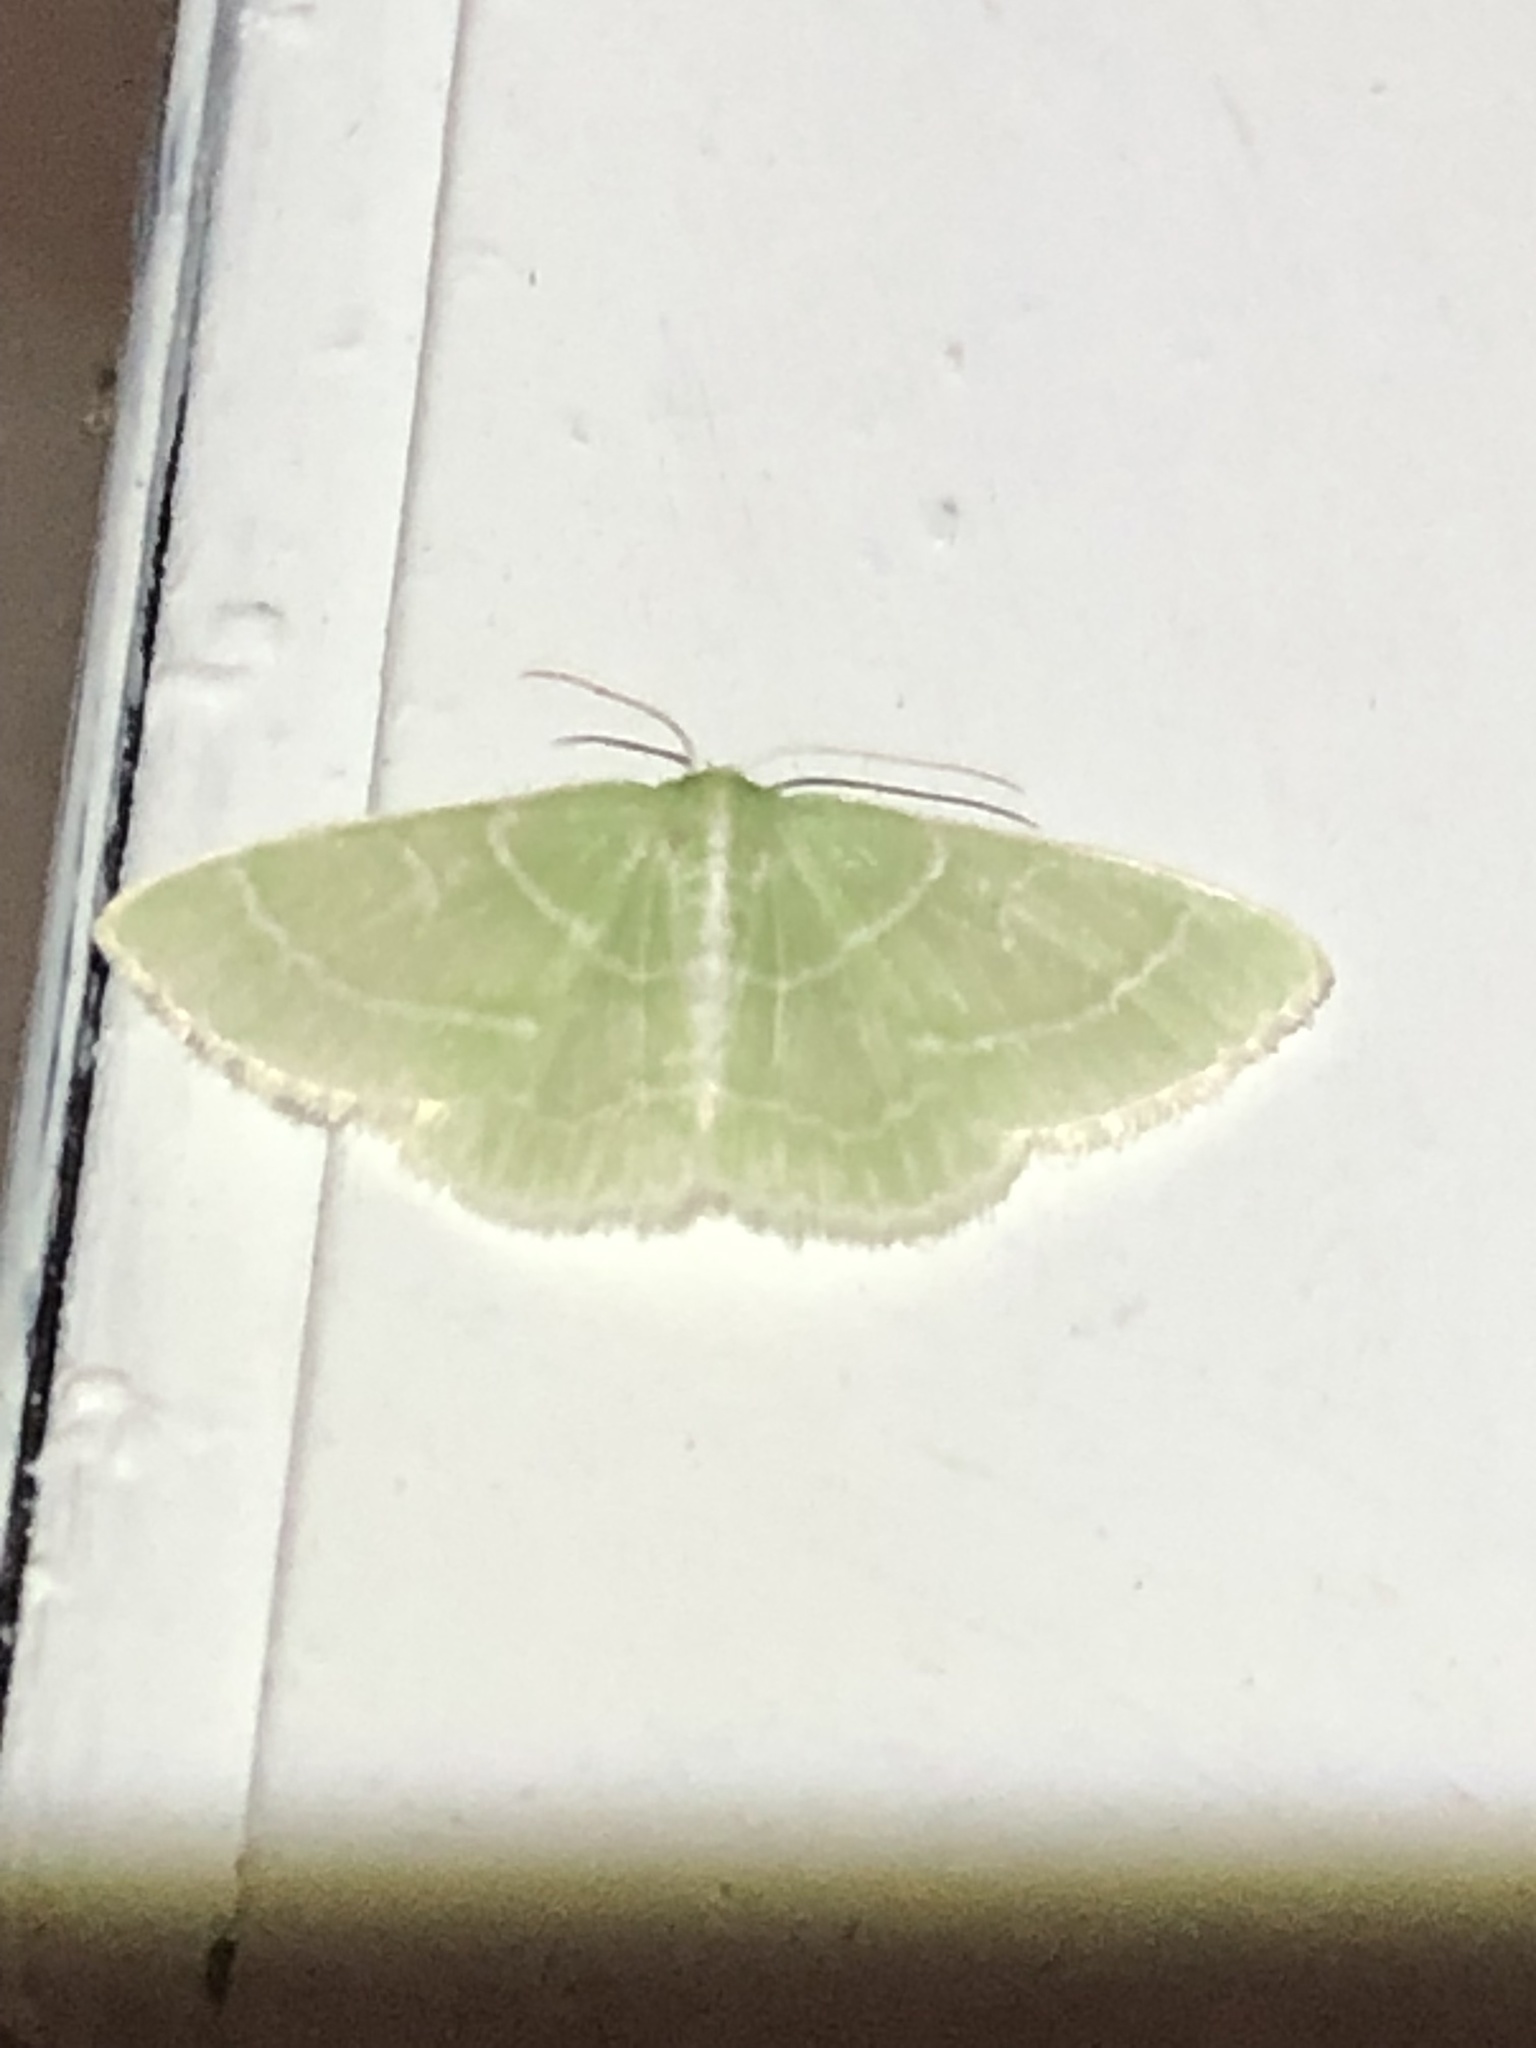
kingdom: Animalia
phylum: Arthropoda
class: Insecta
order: Lepidoptera
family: Geometridae
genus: Synchlora
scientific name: Synchlora aerata
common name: Wavy-lined emerald
